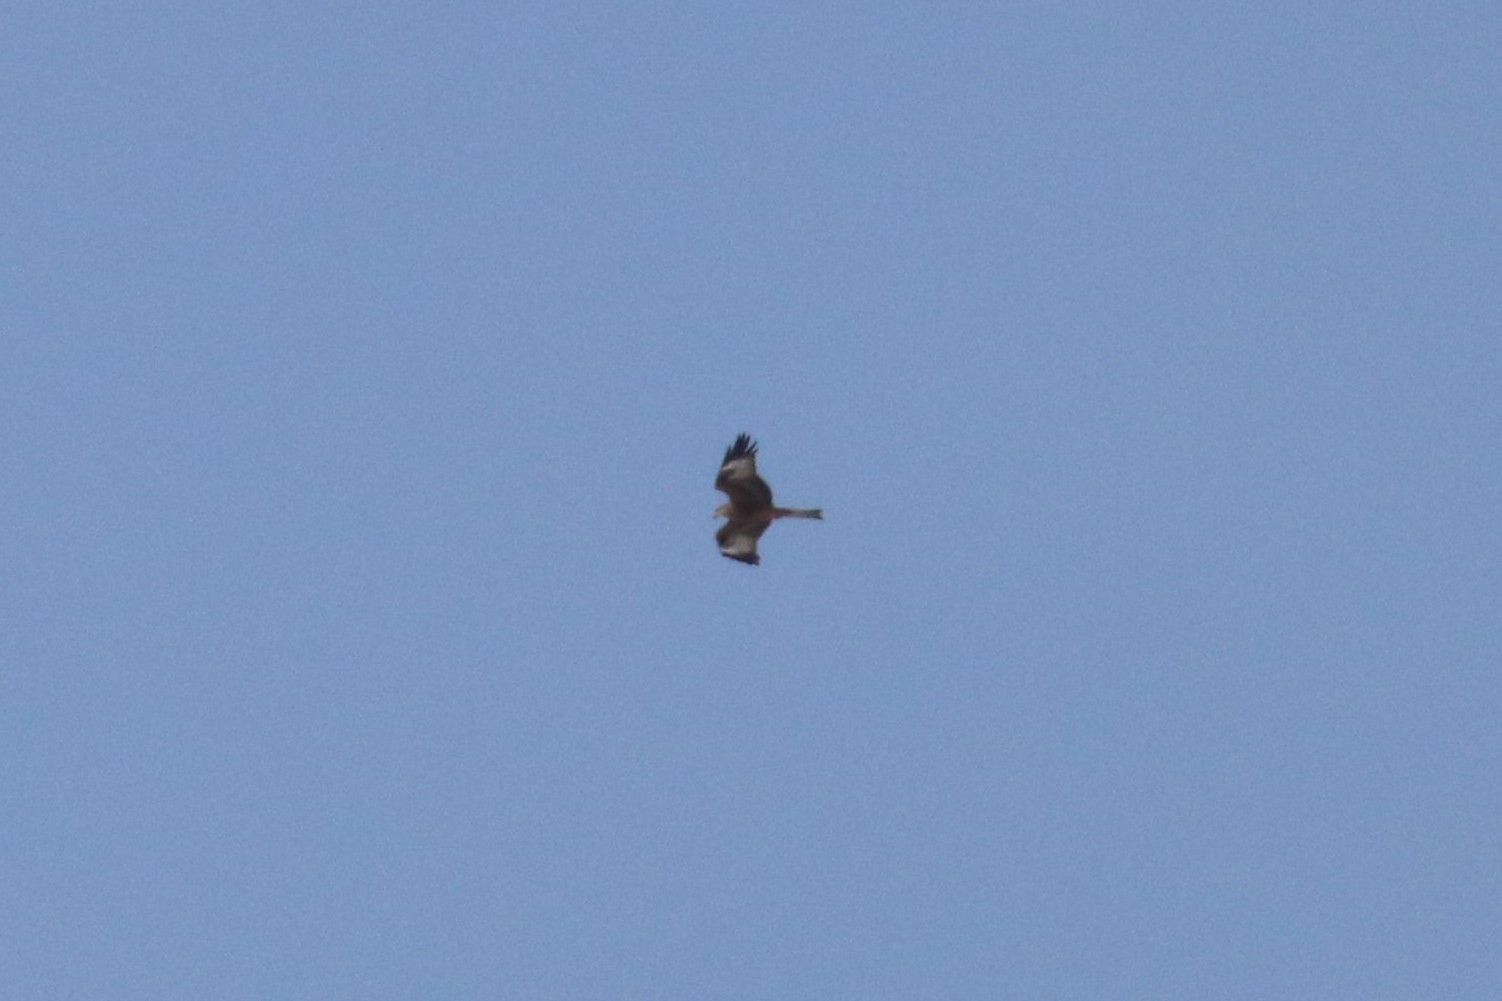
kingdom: Animalia
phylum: Chordata
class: Aves
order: Accipitriformes
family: Accipitridae
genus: Milvus
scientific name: Milvus migrans
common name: Black kite
